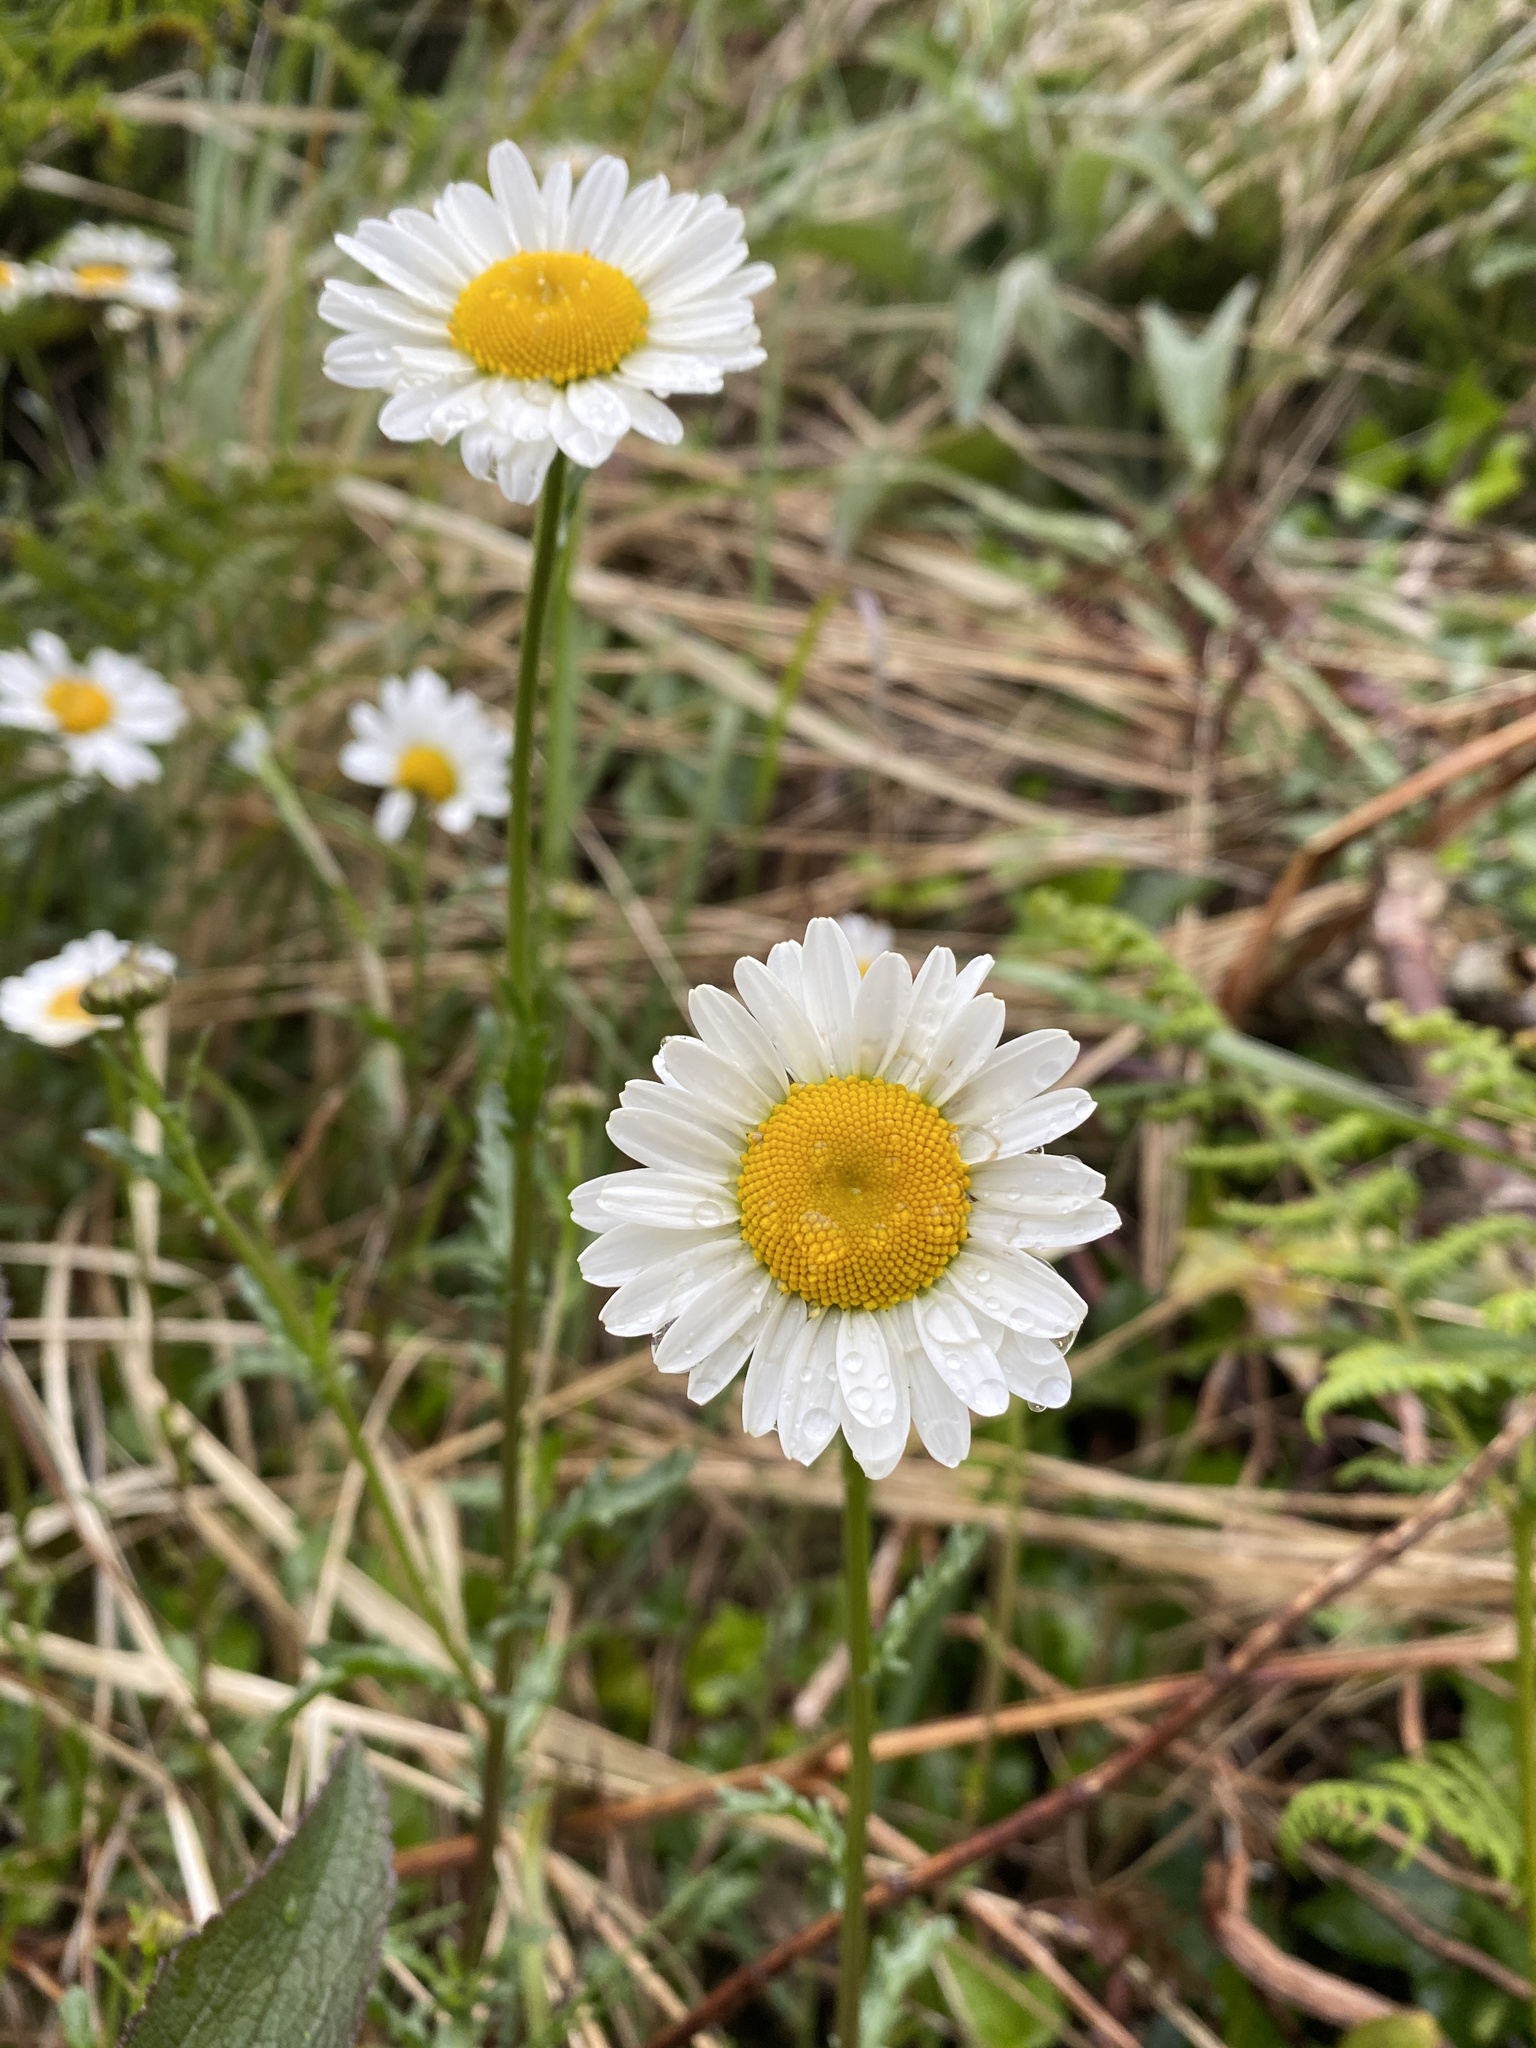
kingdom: Plantae
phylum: Tracheophyta
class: Magnoliopsida
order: Asterales
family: Asteraceae
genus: Leucanthemum
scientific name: Leucanthemum vulgare
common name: Oxeye daisy
